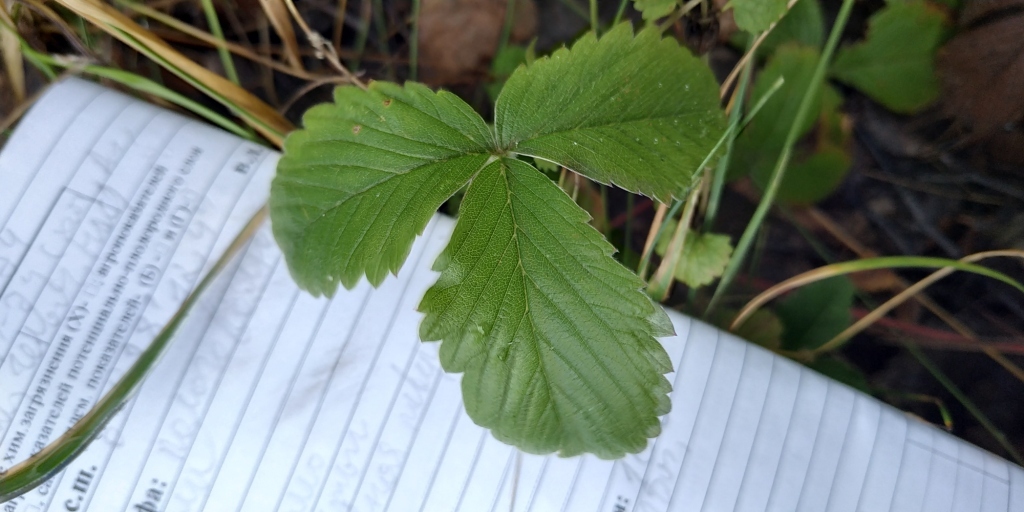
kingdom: Plantae
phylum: Tracheophyta
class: Magnoliopsida
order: Rosales
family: Rosaceae
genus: Fragaria
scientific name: Fragaria viridis
